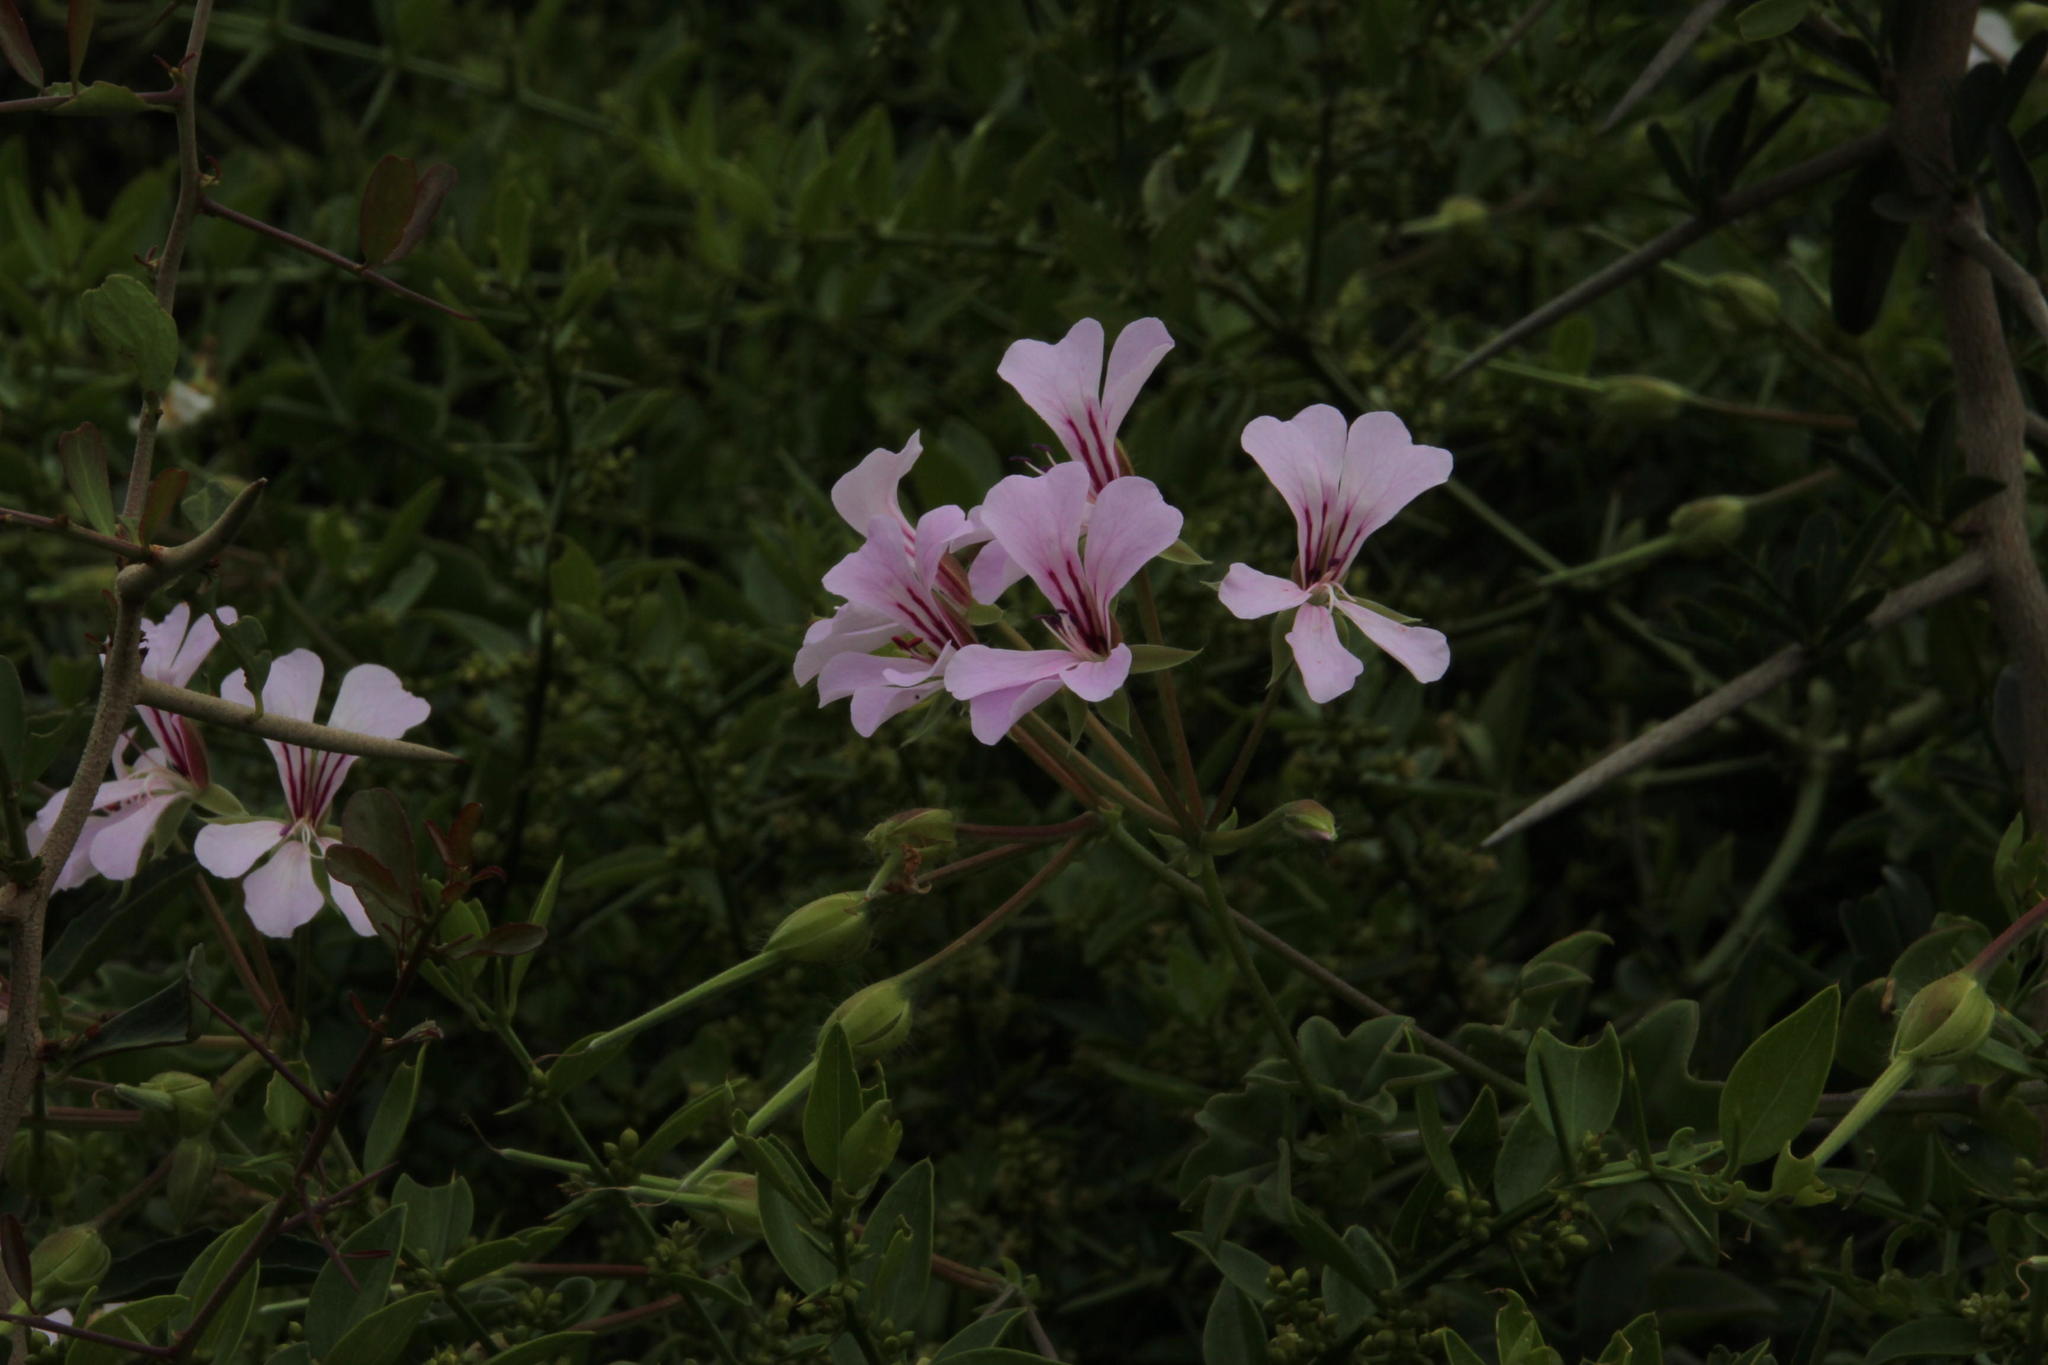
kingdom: Plantae
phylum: Tracheophyta
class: Magnoliopsida
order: Geraniales
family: Geraniaceae
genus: Pelargonium
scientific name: Pelargonium peltatum
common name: Ivyleaf geranium
